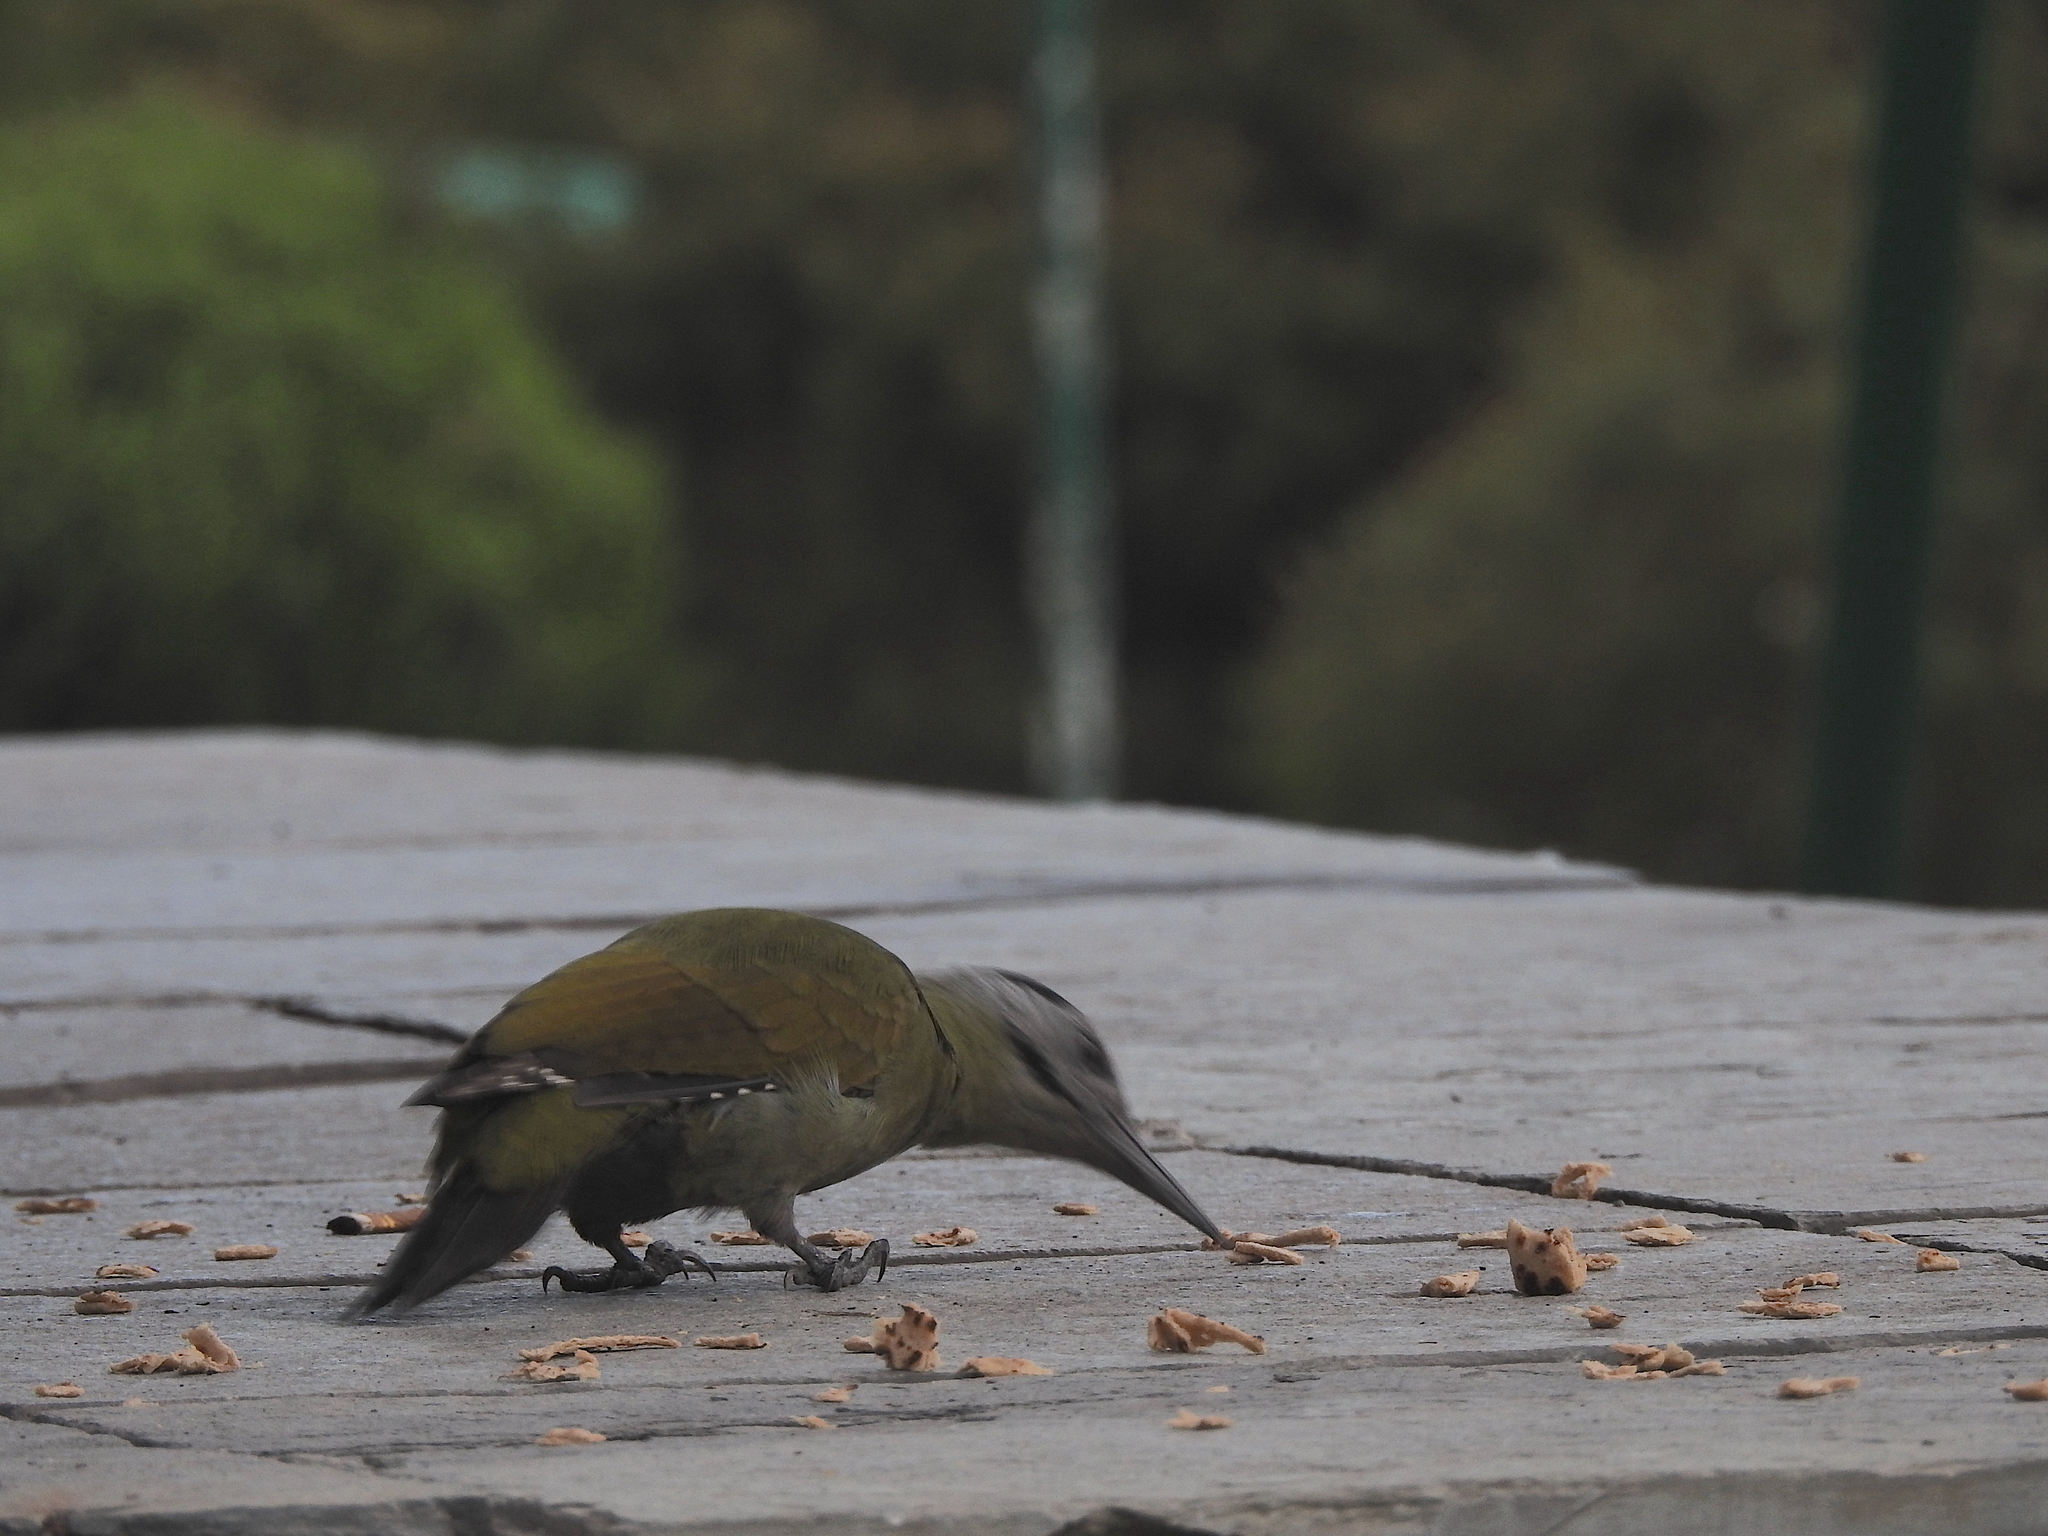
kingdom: Animalia
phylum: Chordata
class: Aves
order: Piciformes
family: Picidae
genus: Picus
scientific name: Picus canus
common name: Grey-headed woodpecker
